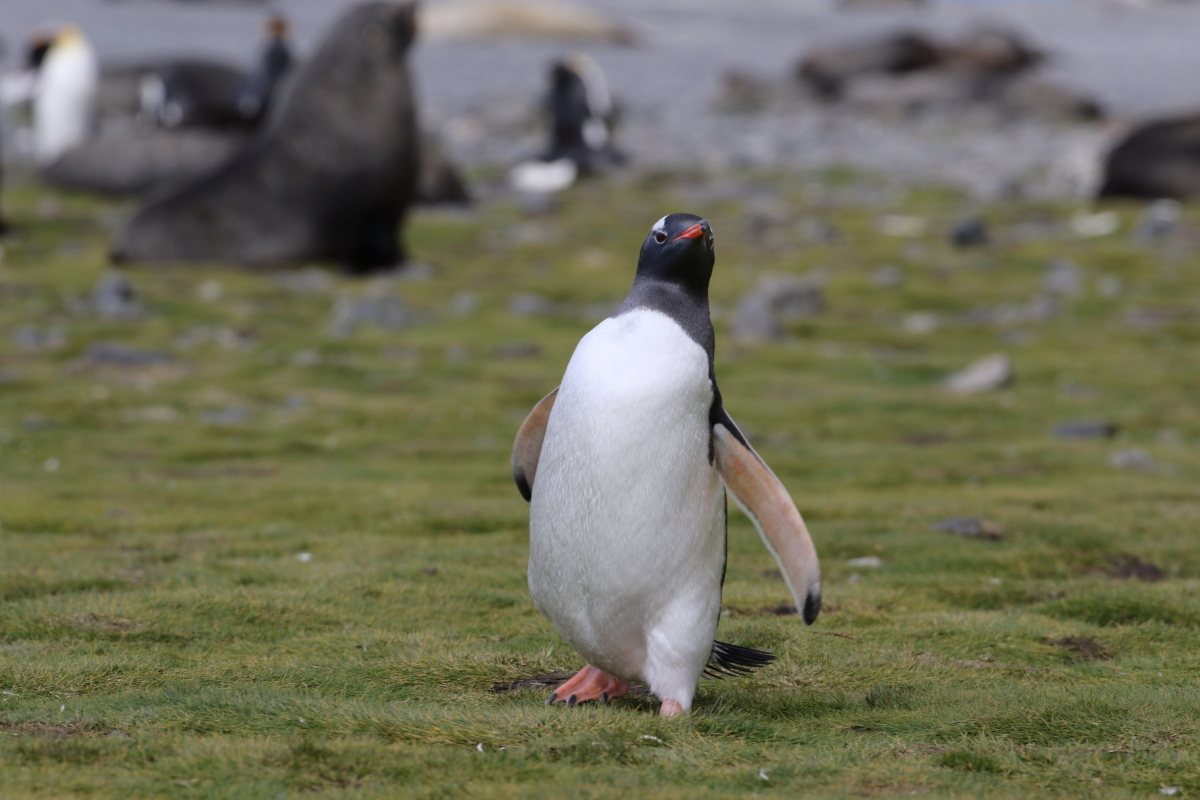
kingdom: Animalia
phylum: Chordata
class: Aves
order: Sphenisciformes
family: Spheniscidae
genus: Pygoscelis
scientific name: Pygoscelis papua
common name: Gentoo penguin
